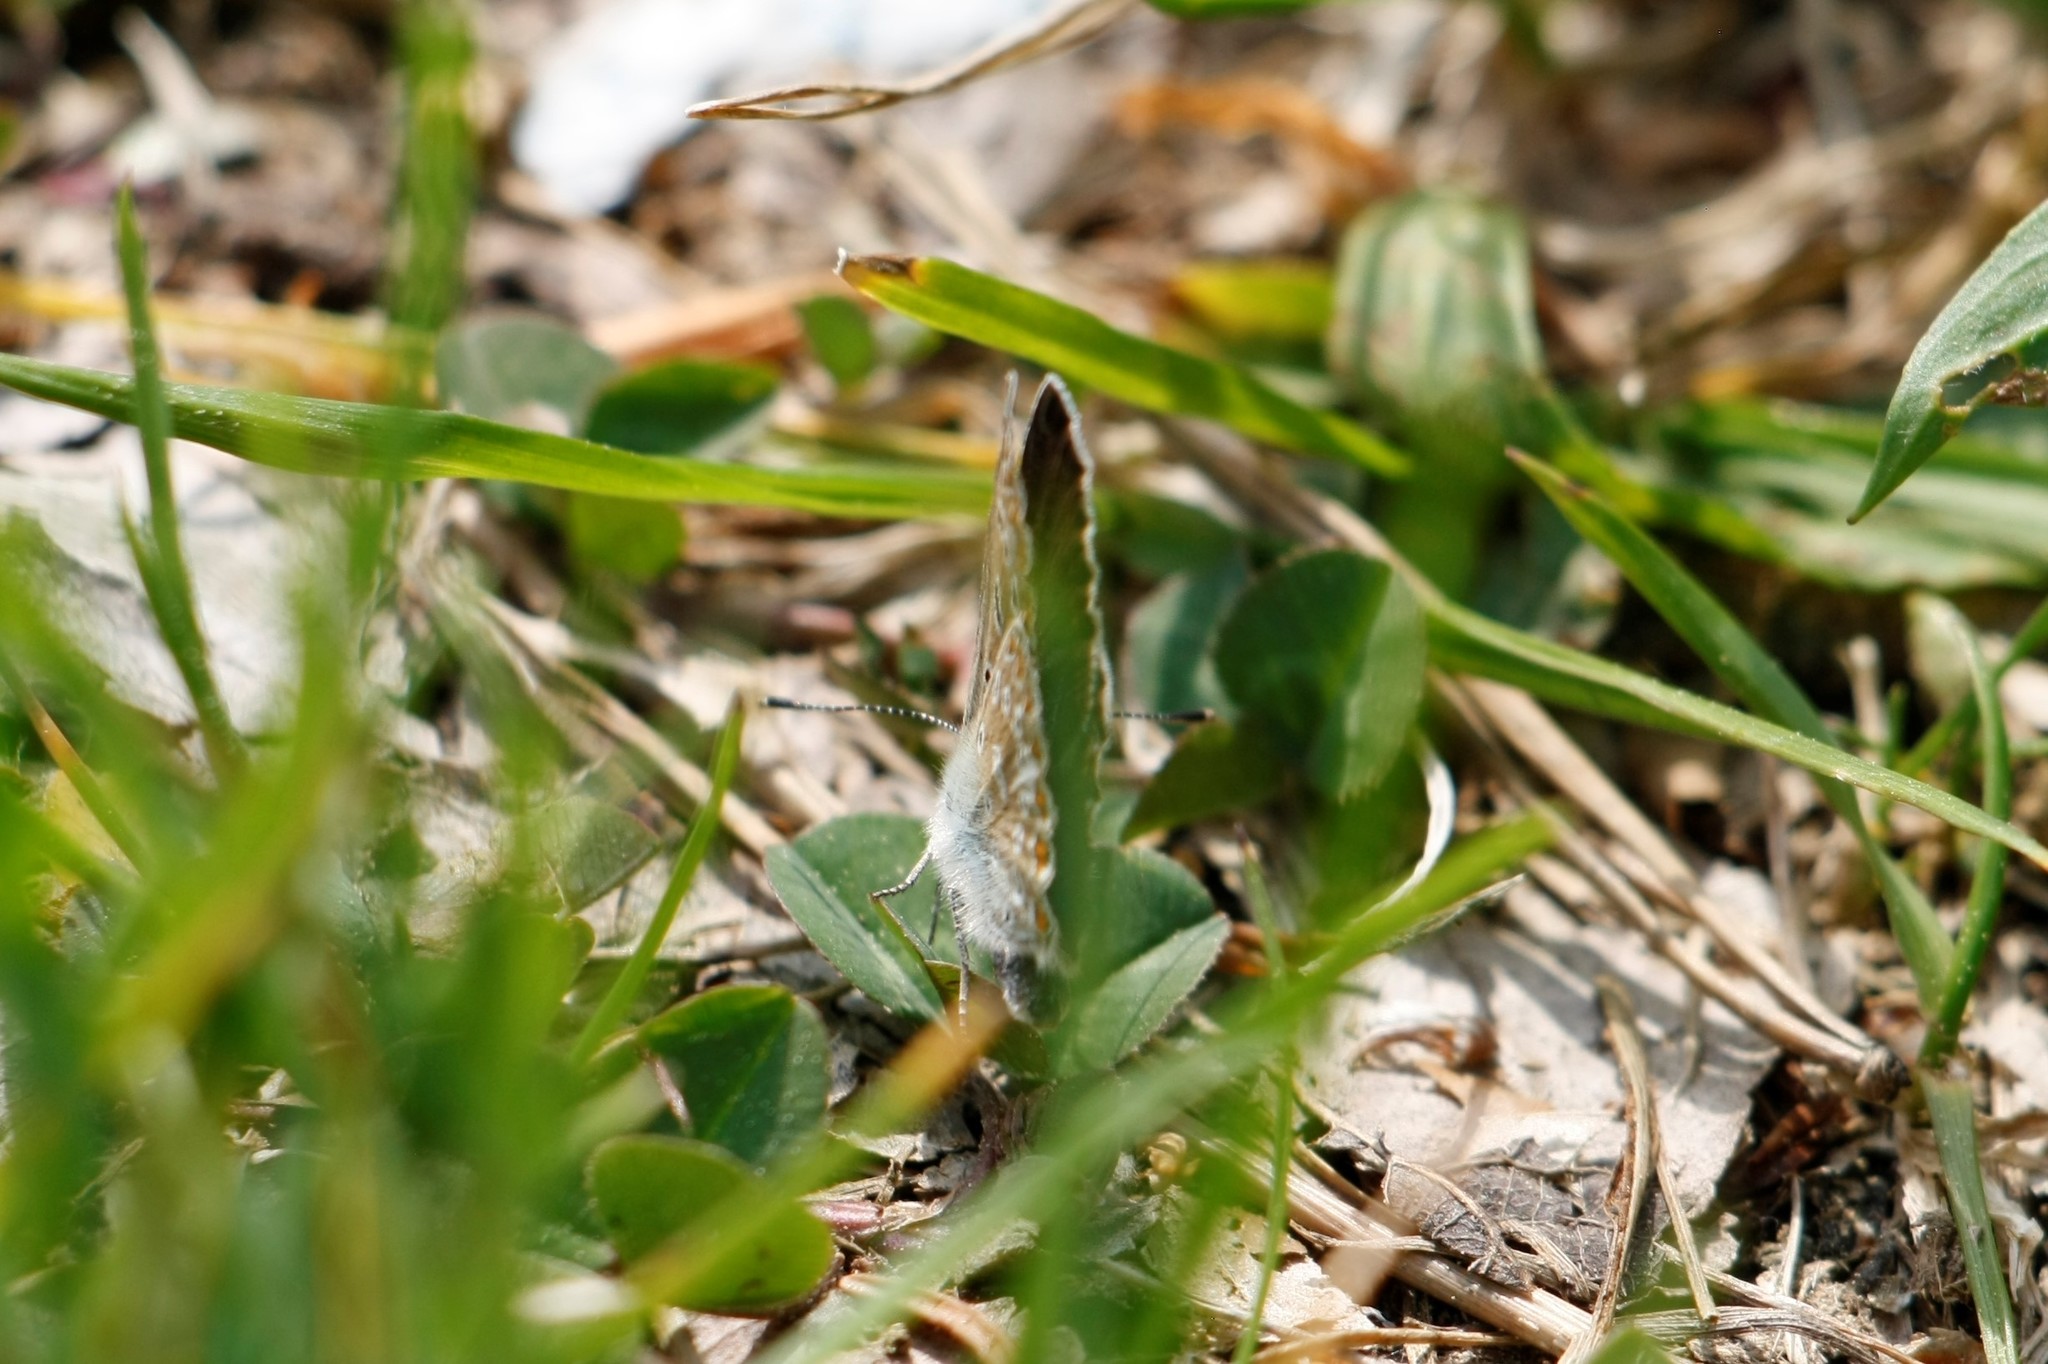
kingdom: Animalia
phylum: Arthropoda
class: Insecta
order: Lepidoptera
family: Lycaenidae
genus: Polyommatus
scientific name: Polyommatus icarus
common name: Common blue
